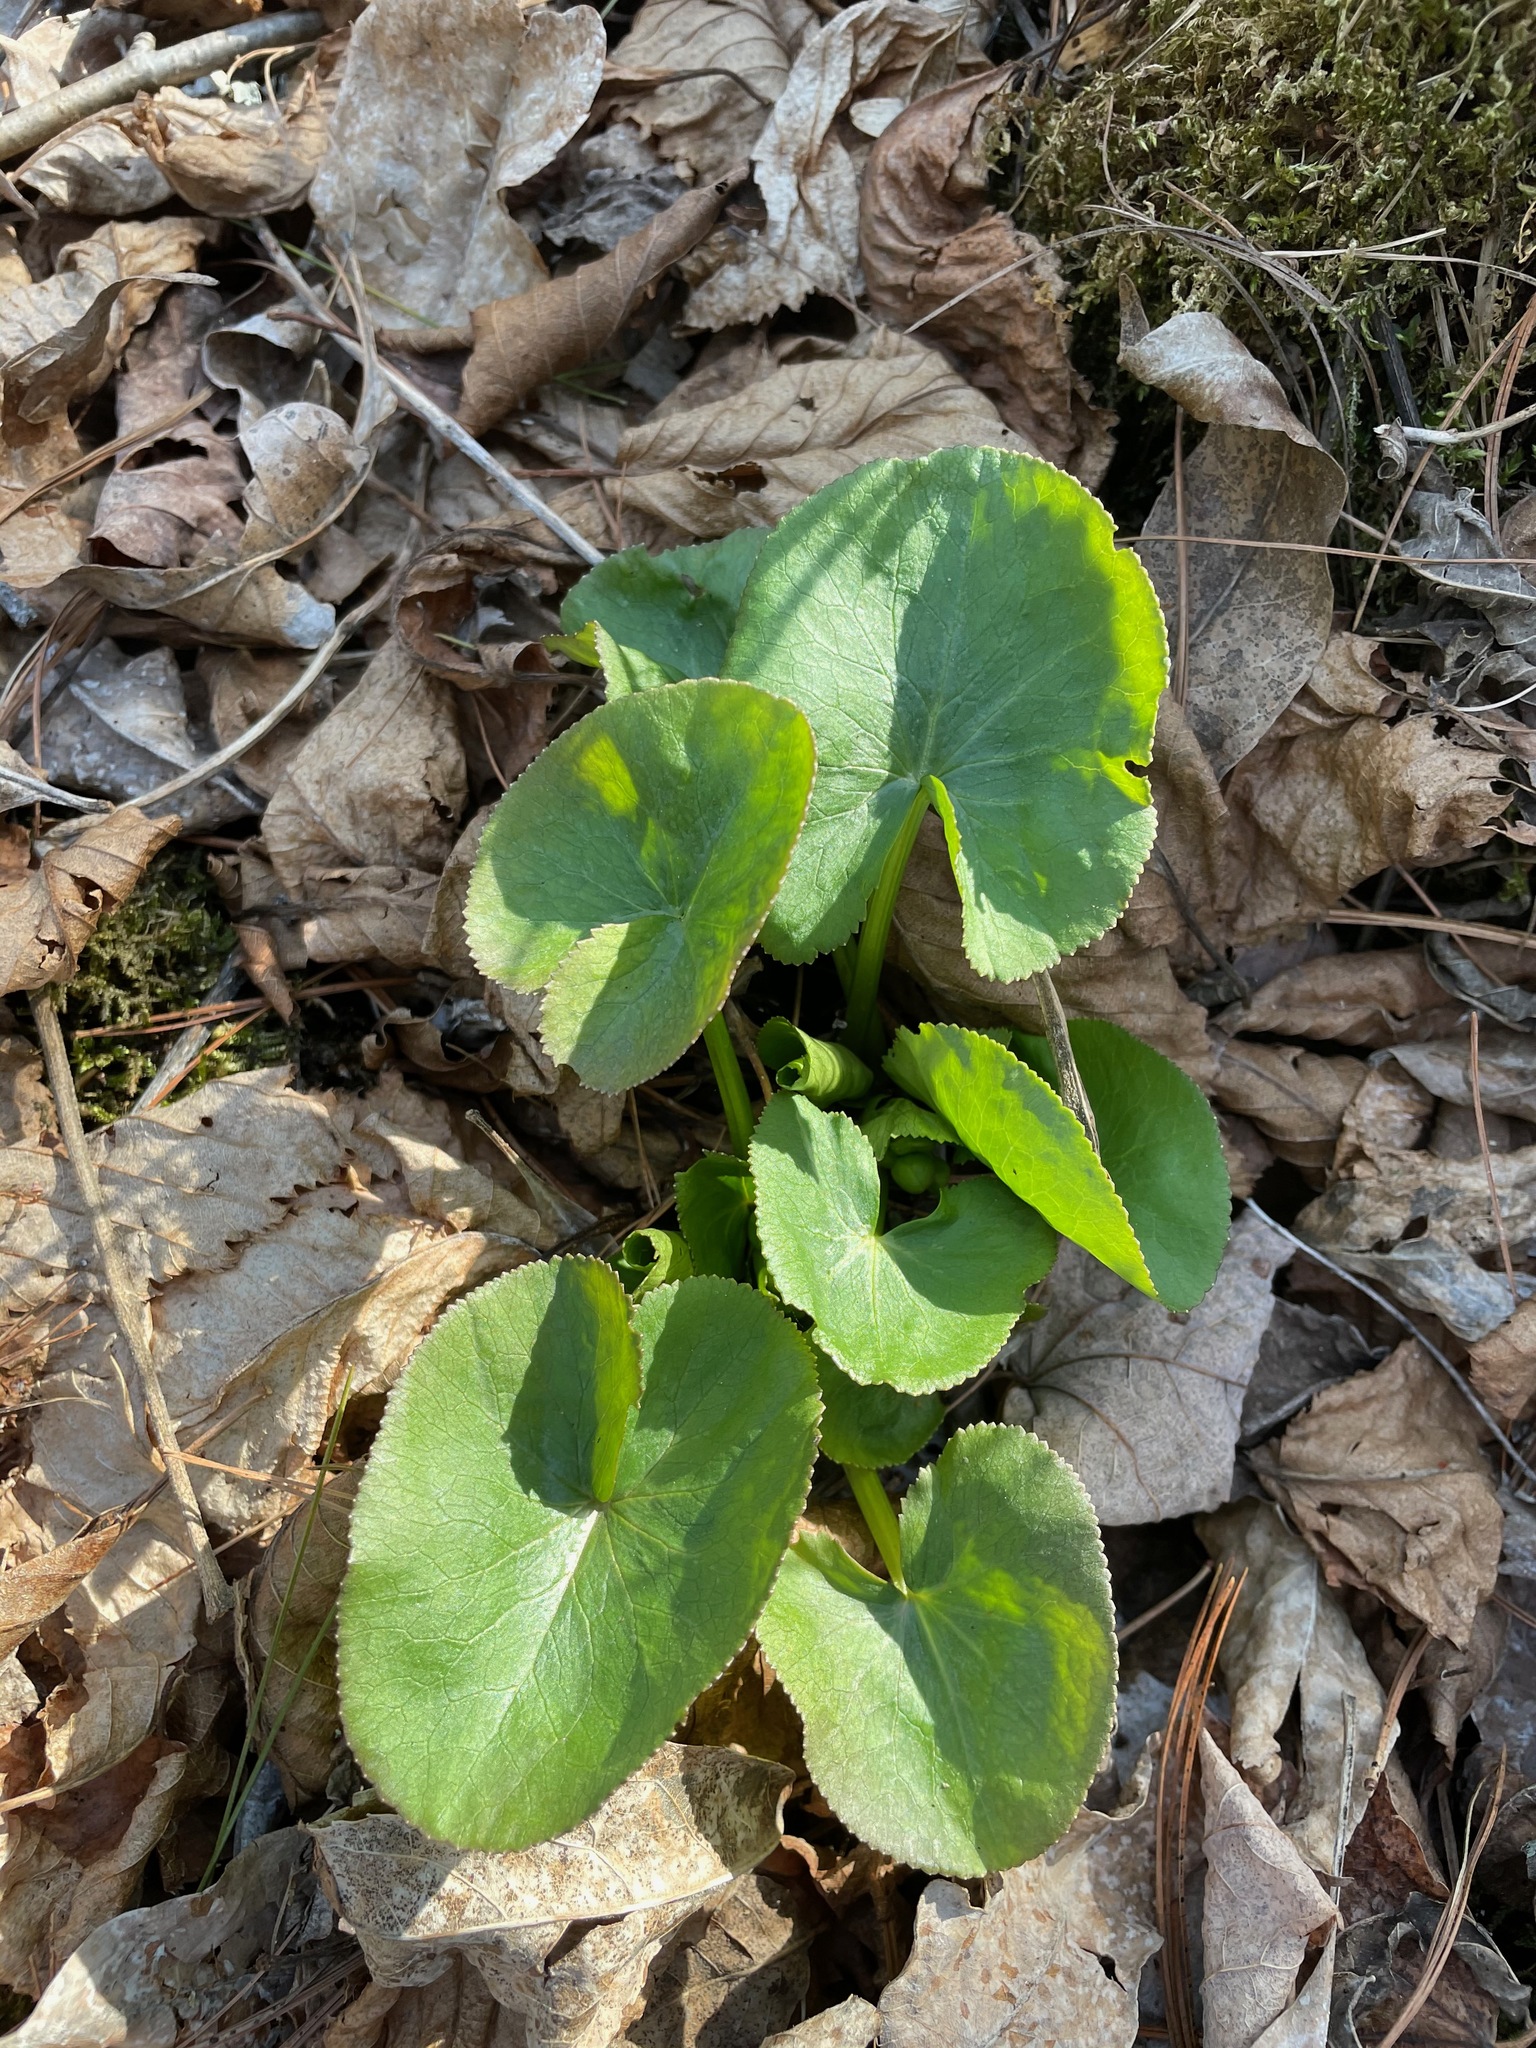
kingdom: Plantae
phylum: Tracheophyta
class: Magnoliopsida
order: Ranunculales
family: Ranunculaceae
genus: Caltha
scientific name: Caltha palustris
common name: Marsh marigold
